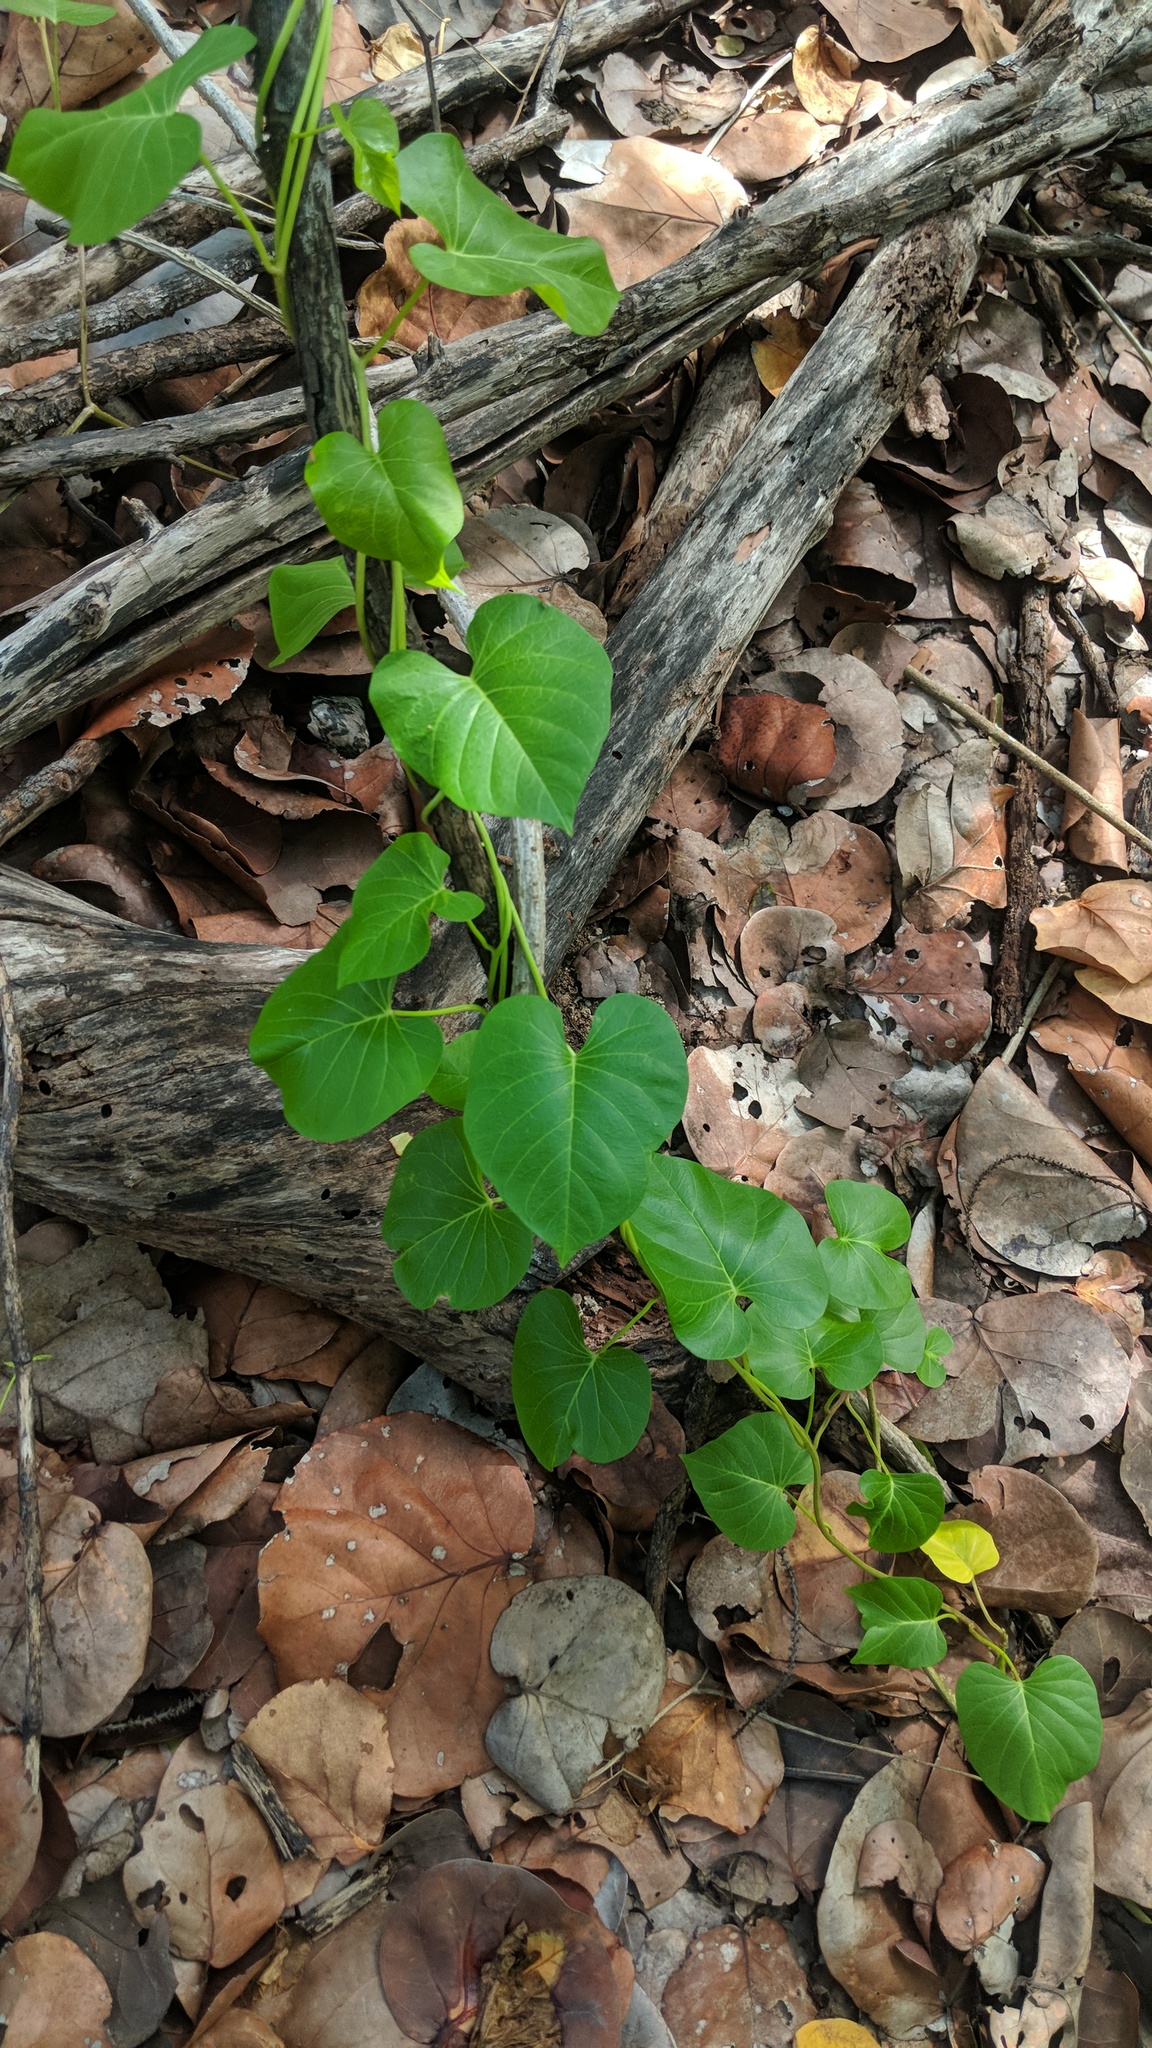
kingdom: Plantae
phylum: Tracheophyta
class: Magnoliopsida
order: Solanales
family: Convolvulaceae
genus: Ipomoea
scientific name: Ipomoea violacea
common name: Beach moonflower
